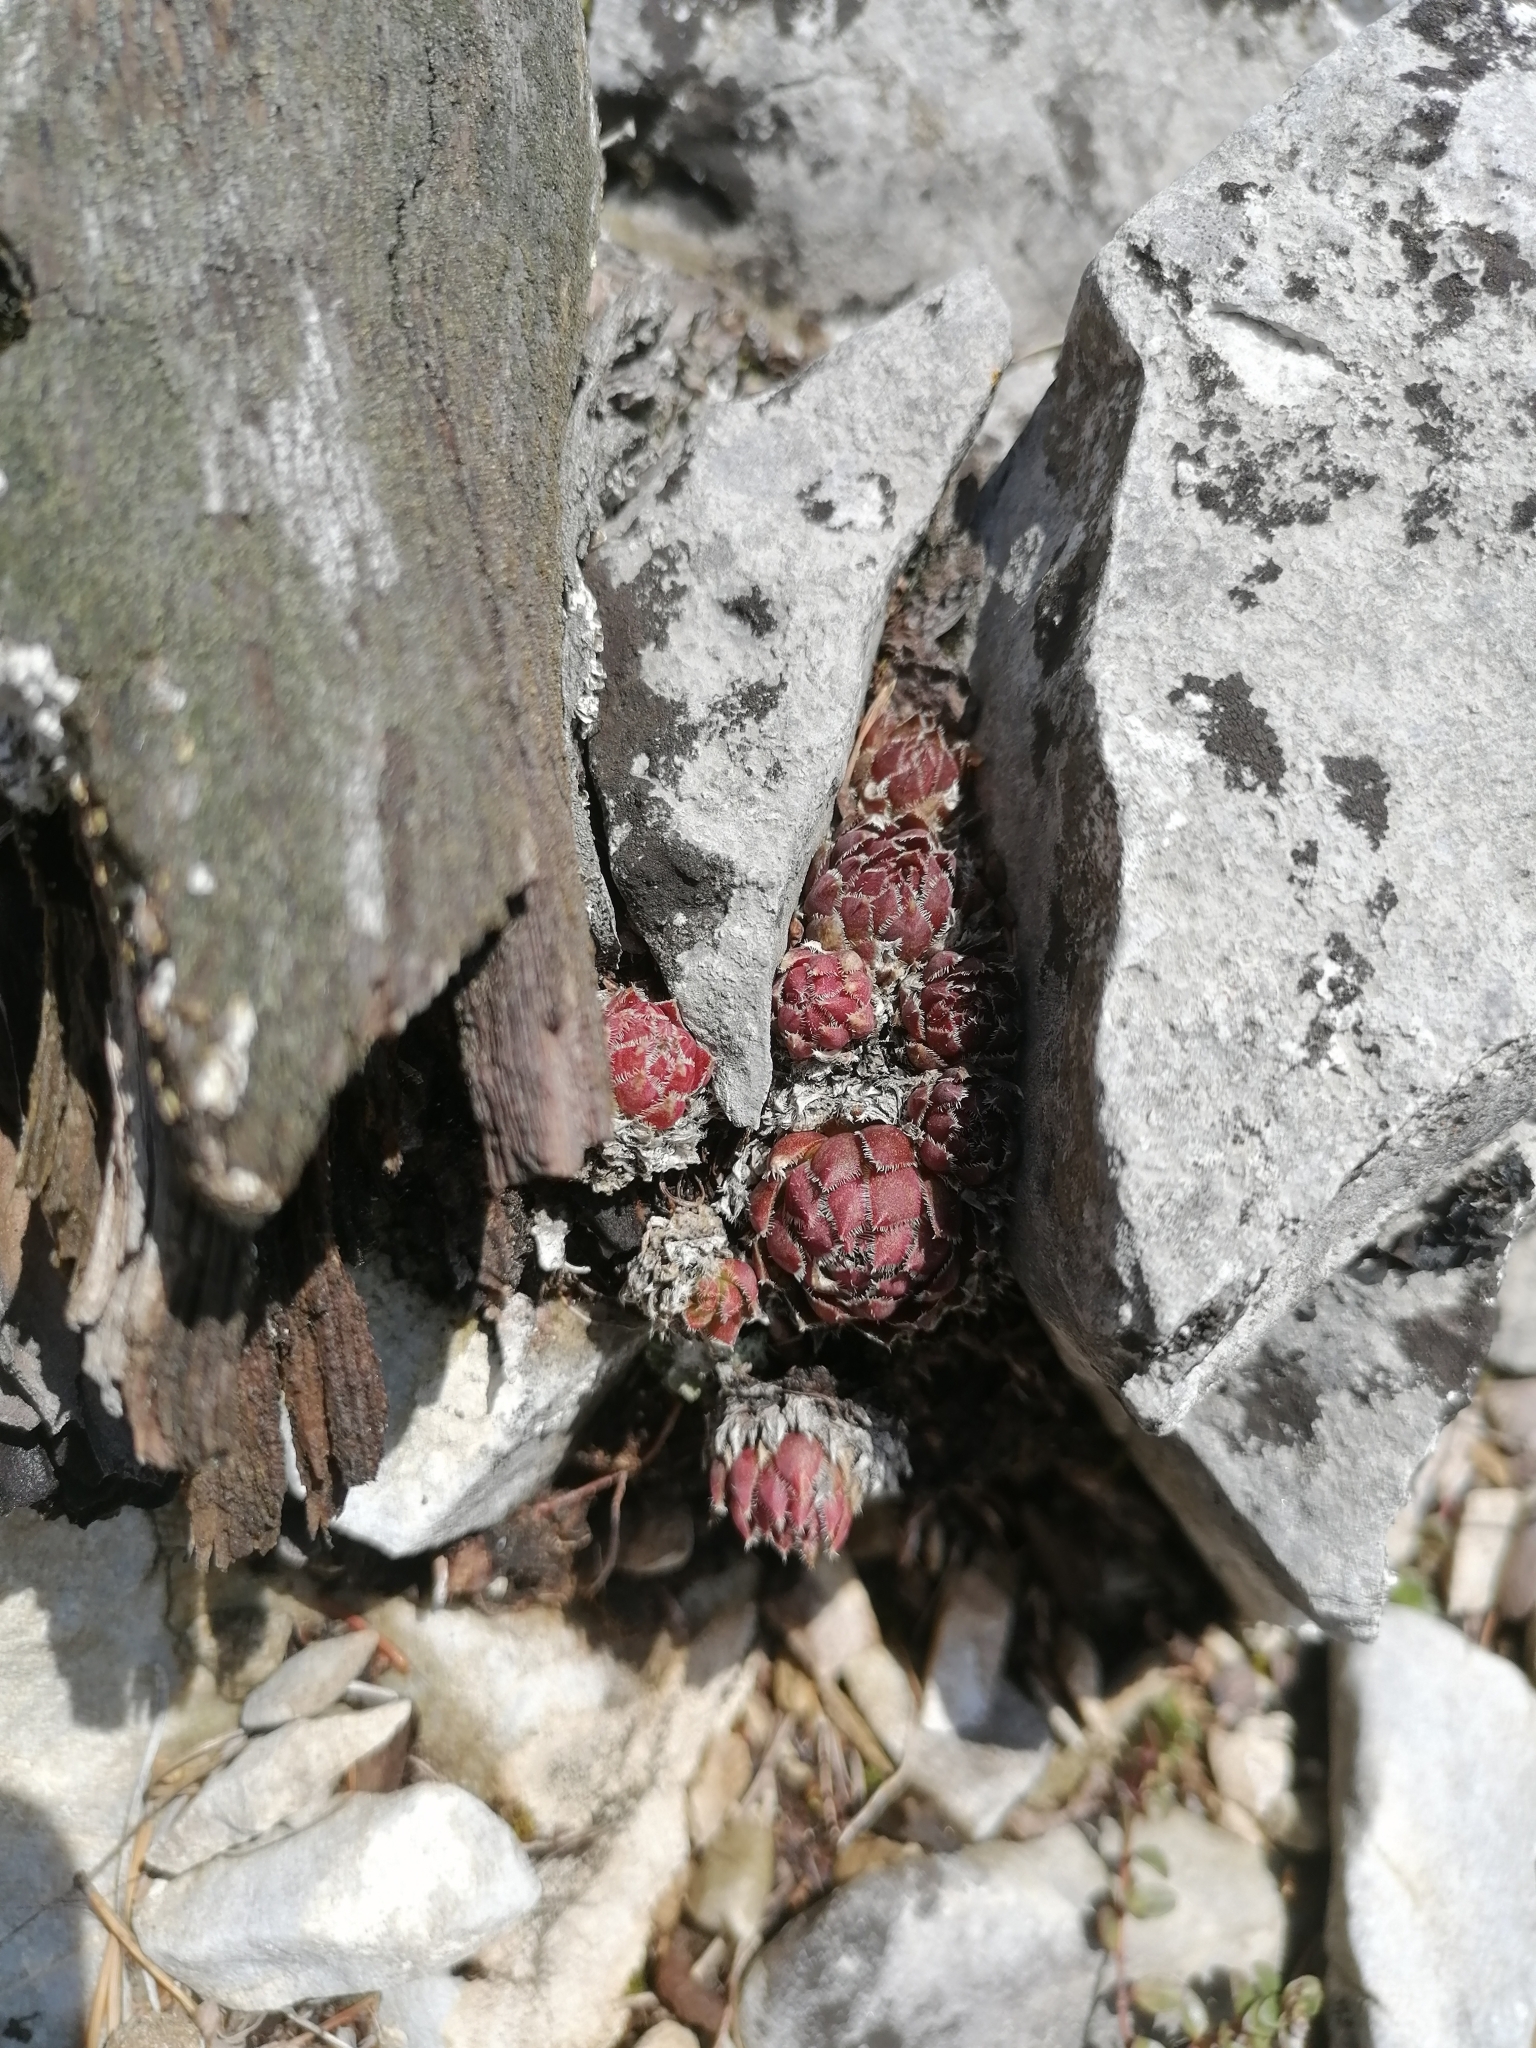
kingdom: Plantae
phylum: Tracheophyta
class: Magnoliopsida
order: Saxifragales
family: Crassulaceae
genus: Sempervivum
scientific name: Sempervivum globiferum
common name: Rolling hen-and-chicks
